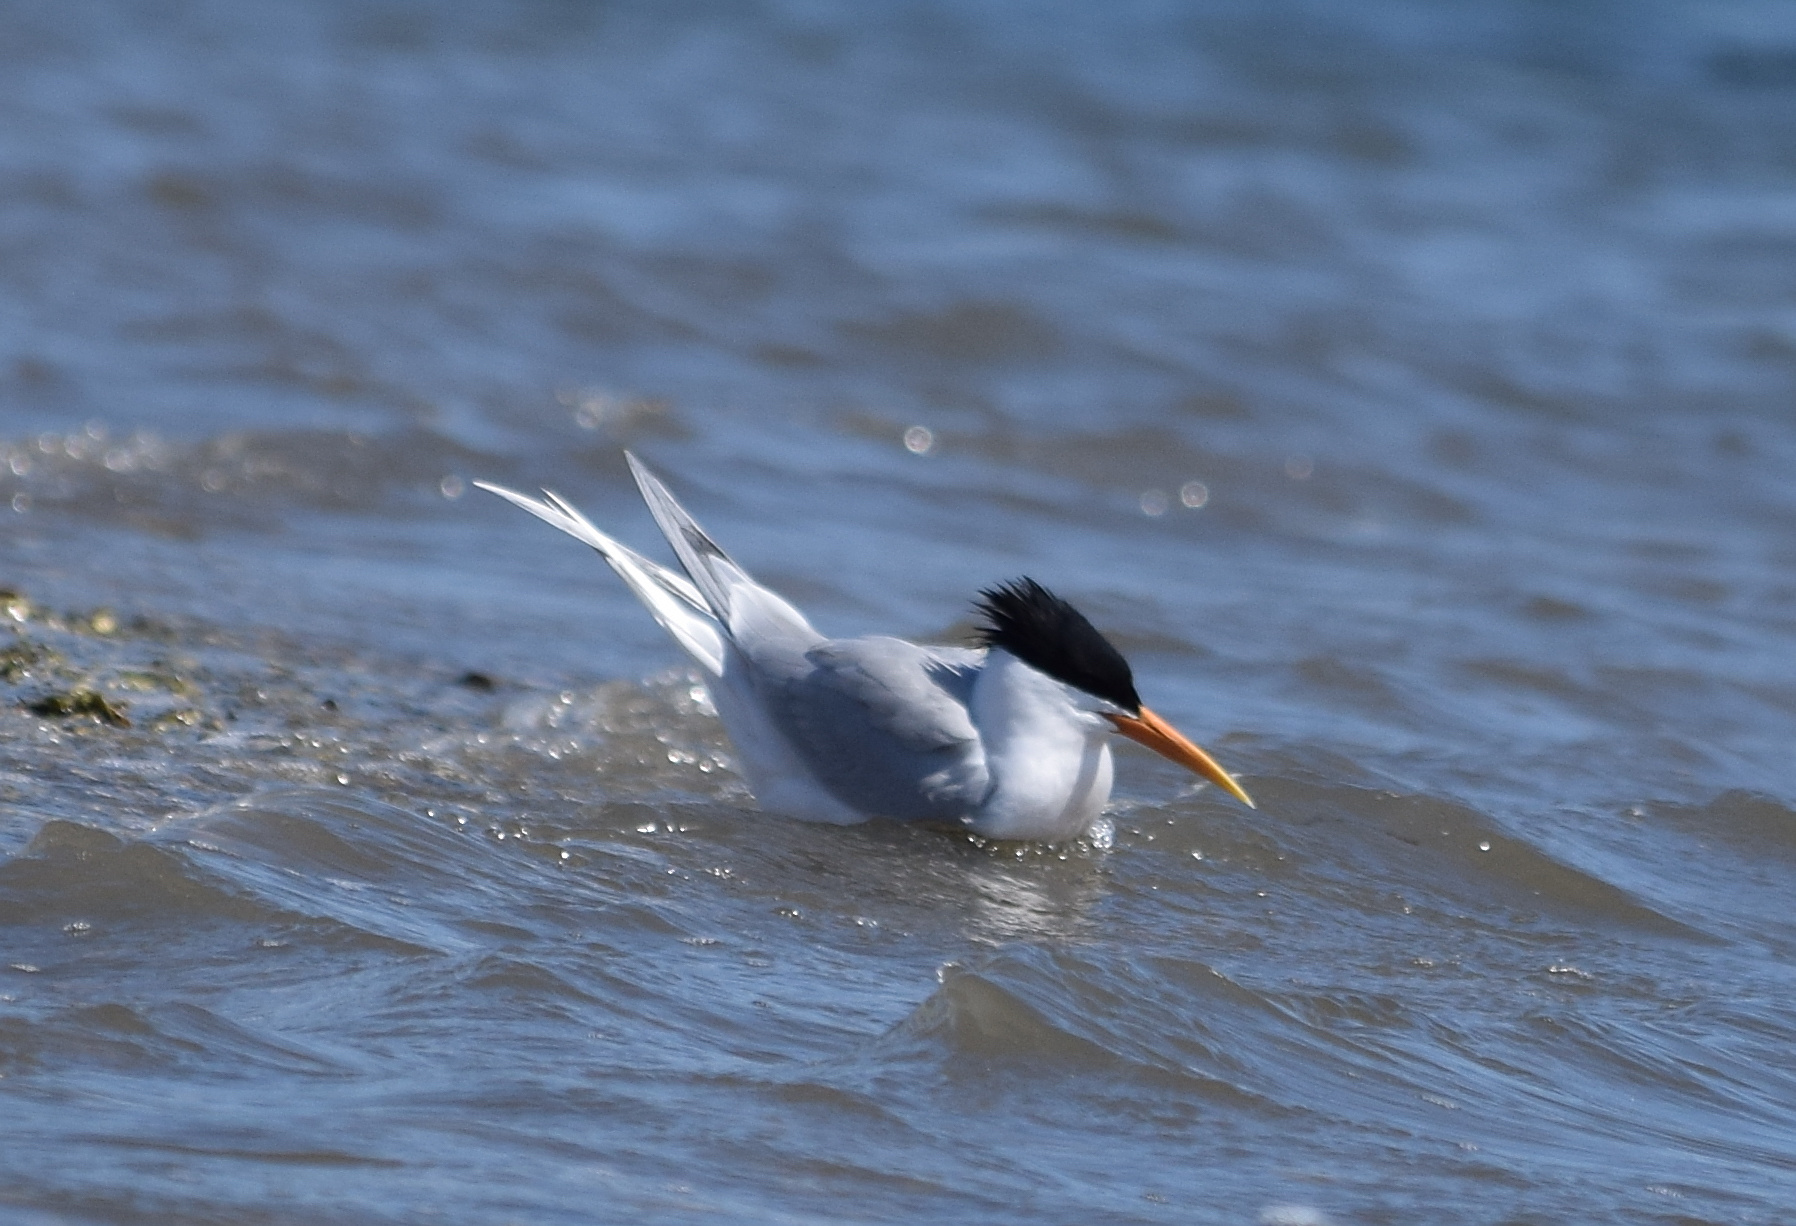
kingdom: Animalia
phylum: Chordata
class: Aves
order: Charadriiformes
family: Laridae
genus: Thalasseus
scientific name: Thalasseus elegans
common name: Elegant tern
